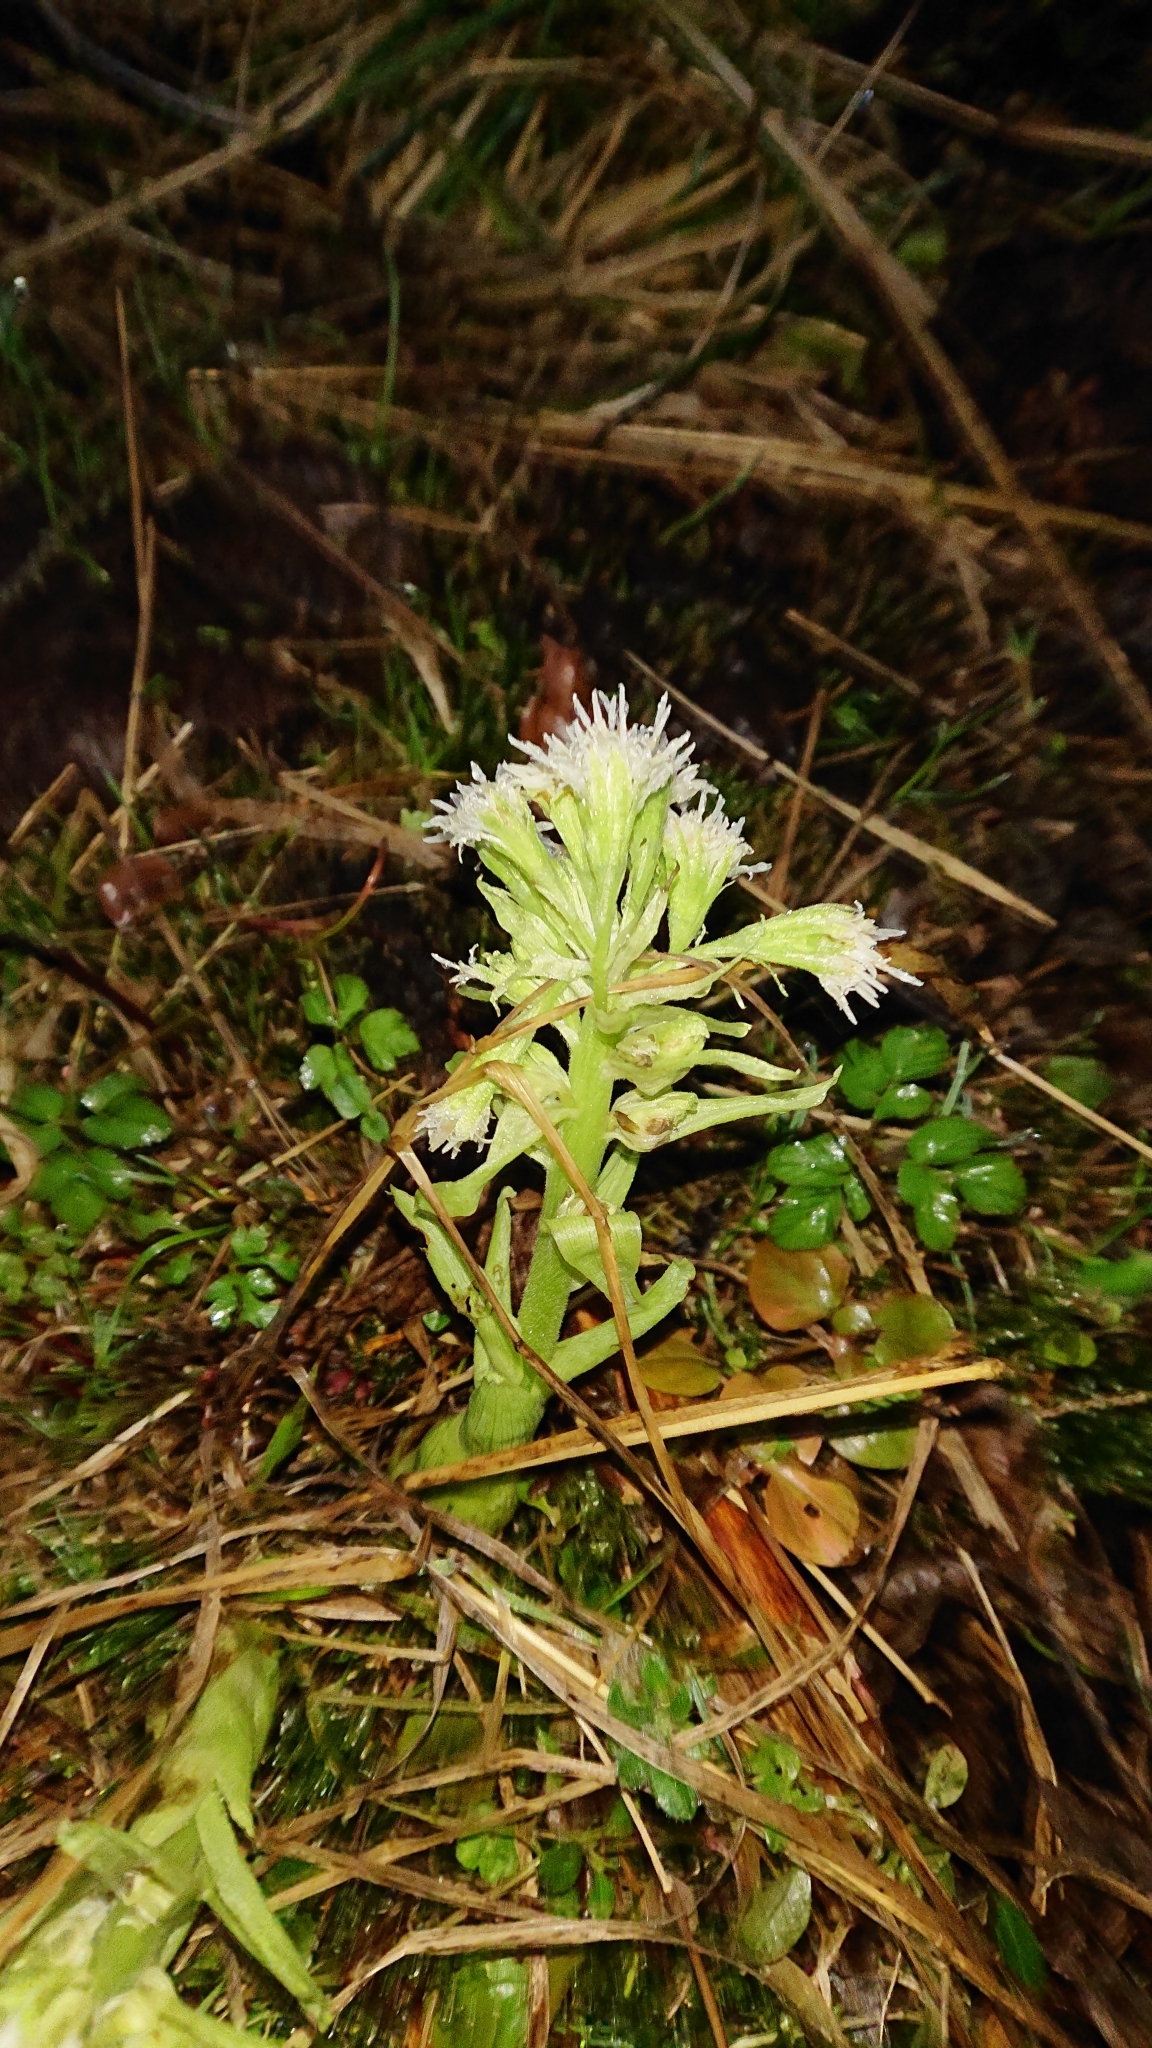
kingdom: Plantae
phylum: Tracheophyta
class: Magnoliopsida
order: Asterales
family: Asteraceae
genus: Petasites
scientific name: Petasites albus
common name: White butterbur
